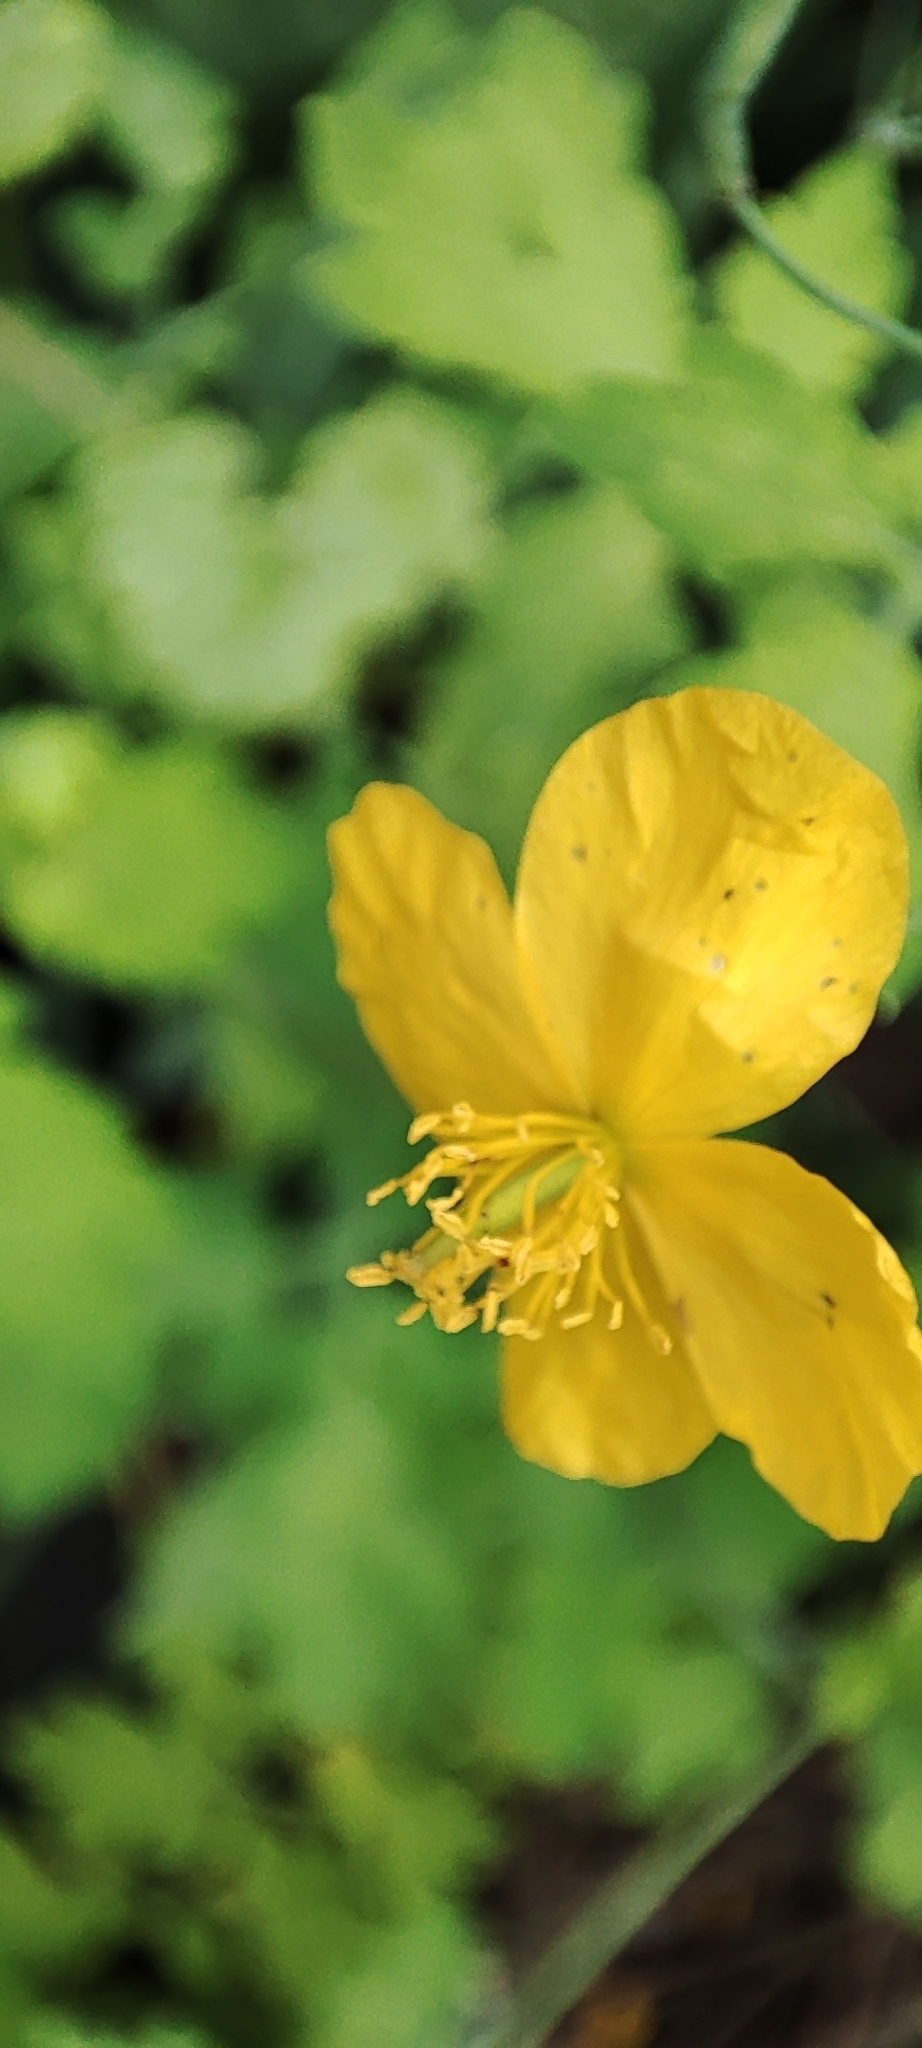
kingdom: Plantae
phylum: Tracheophyta
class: Magnoliopsida
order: Ranunculales
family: Papaveraceae
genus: Chelidonium
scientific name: Chelidonium majus
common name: Greater celandine
